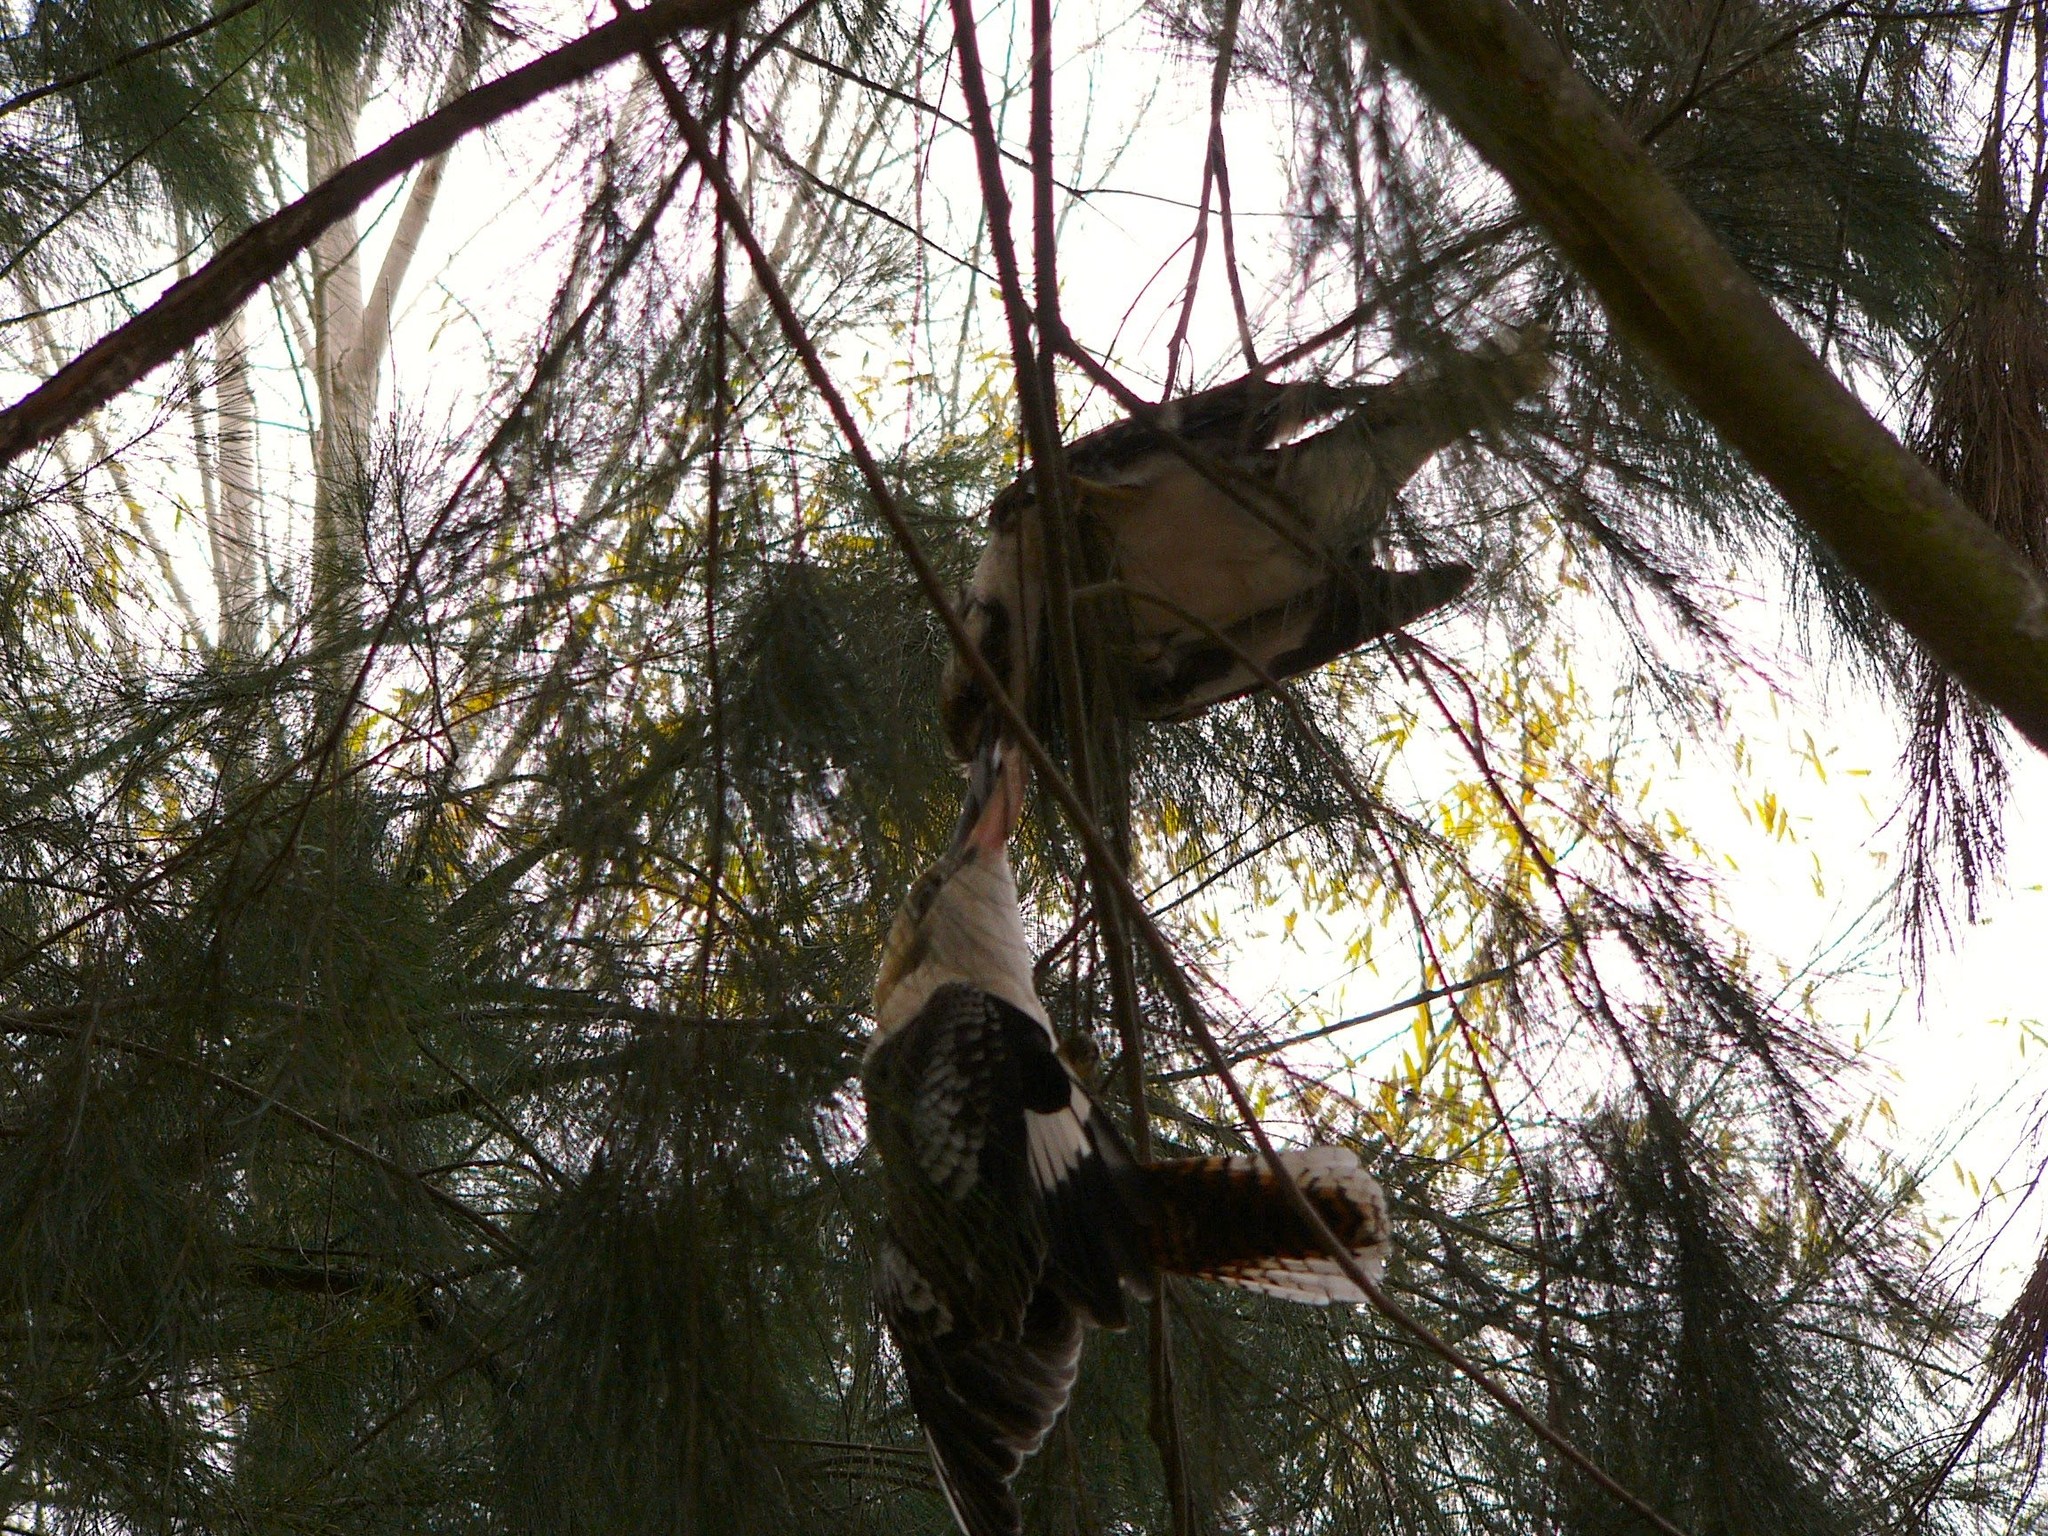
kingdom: Animalia
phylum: Chordata
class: Aves
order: Coraciiformes
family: Alcedinidae
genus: Dacelo
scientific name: Dacelo novaeguineae
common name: Laughing kookaburra
